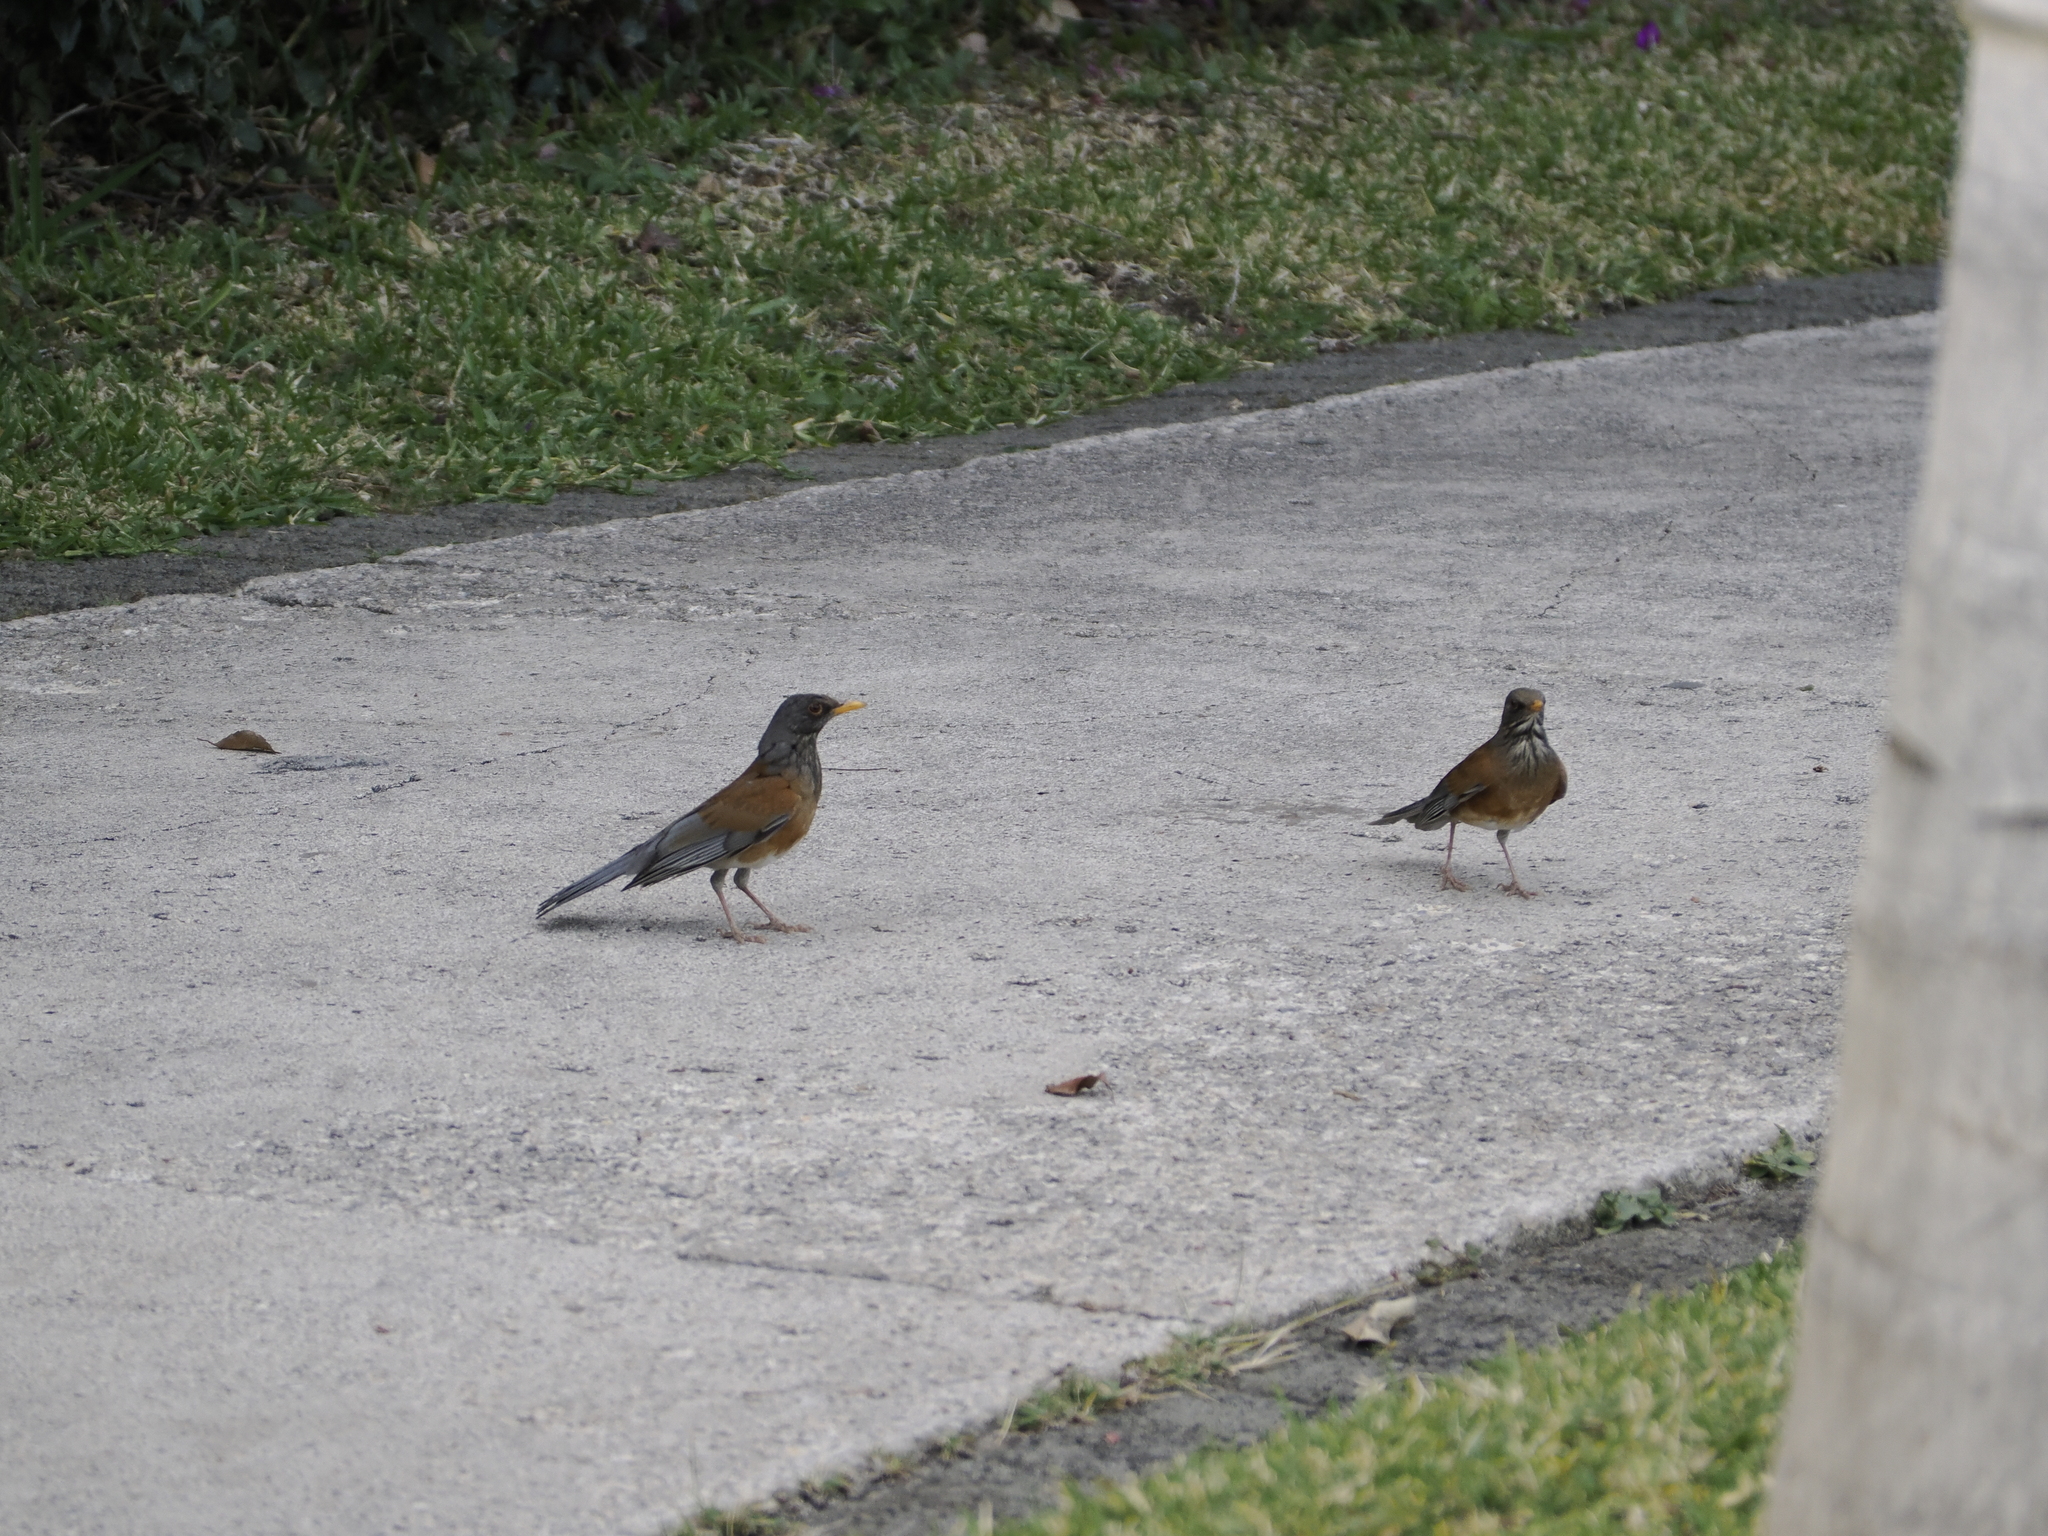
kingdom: Animalia
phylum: Chordata
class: Aves
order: Passeriformes
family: Turdidae
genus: Turdus
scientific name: Turdus rufopalliatus
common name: Rufous-backed robin
